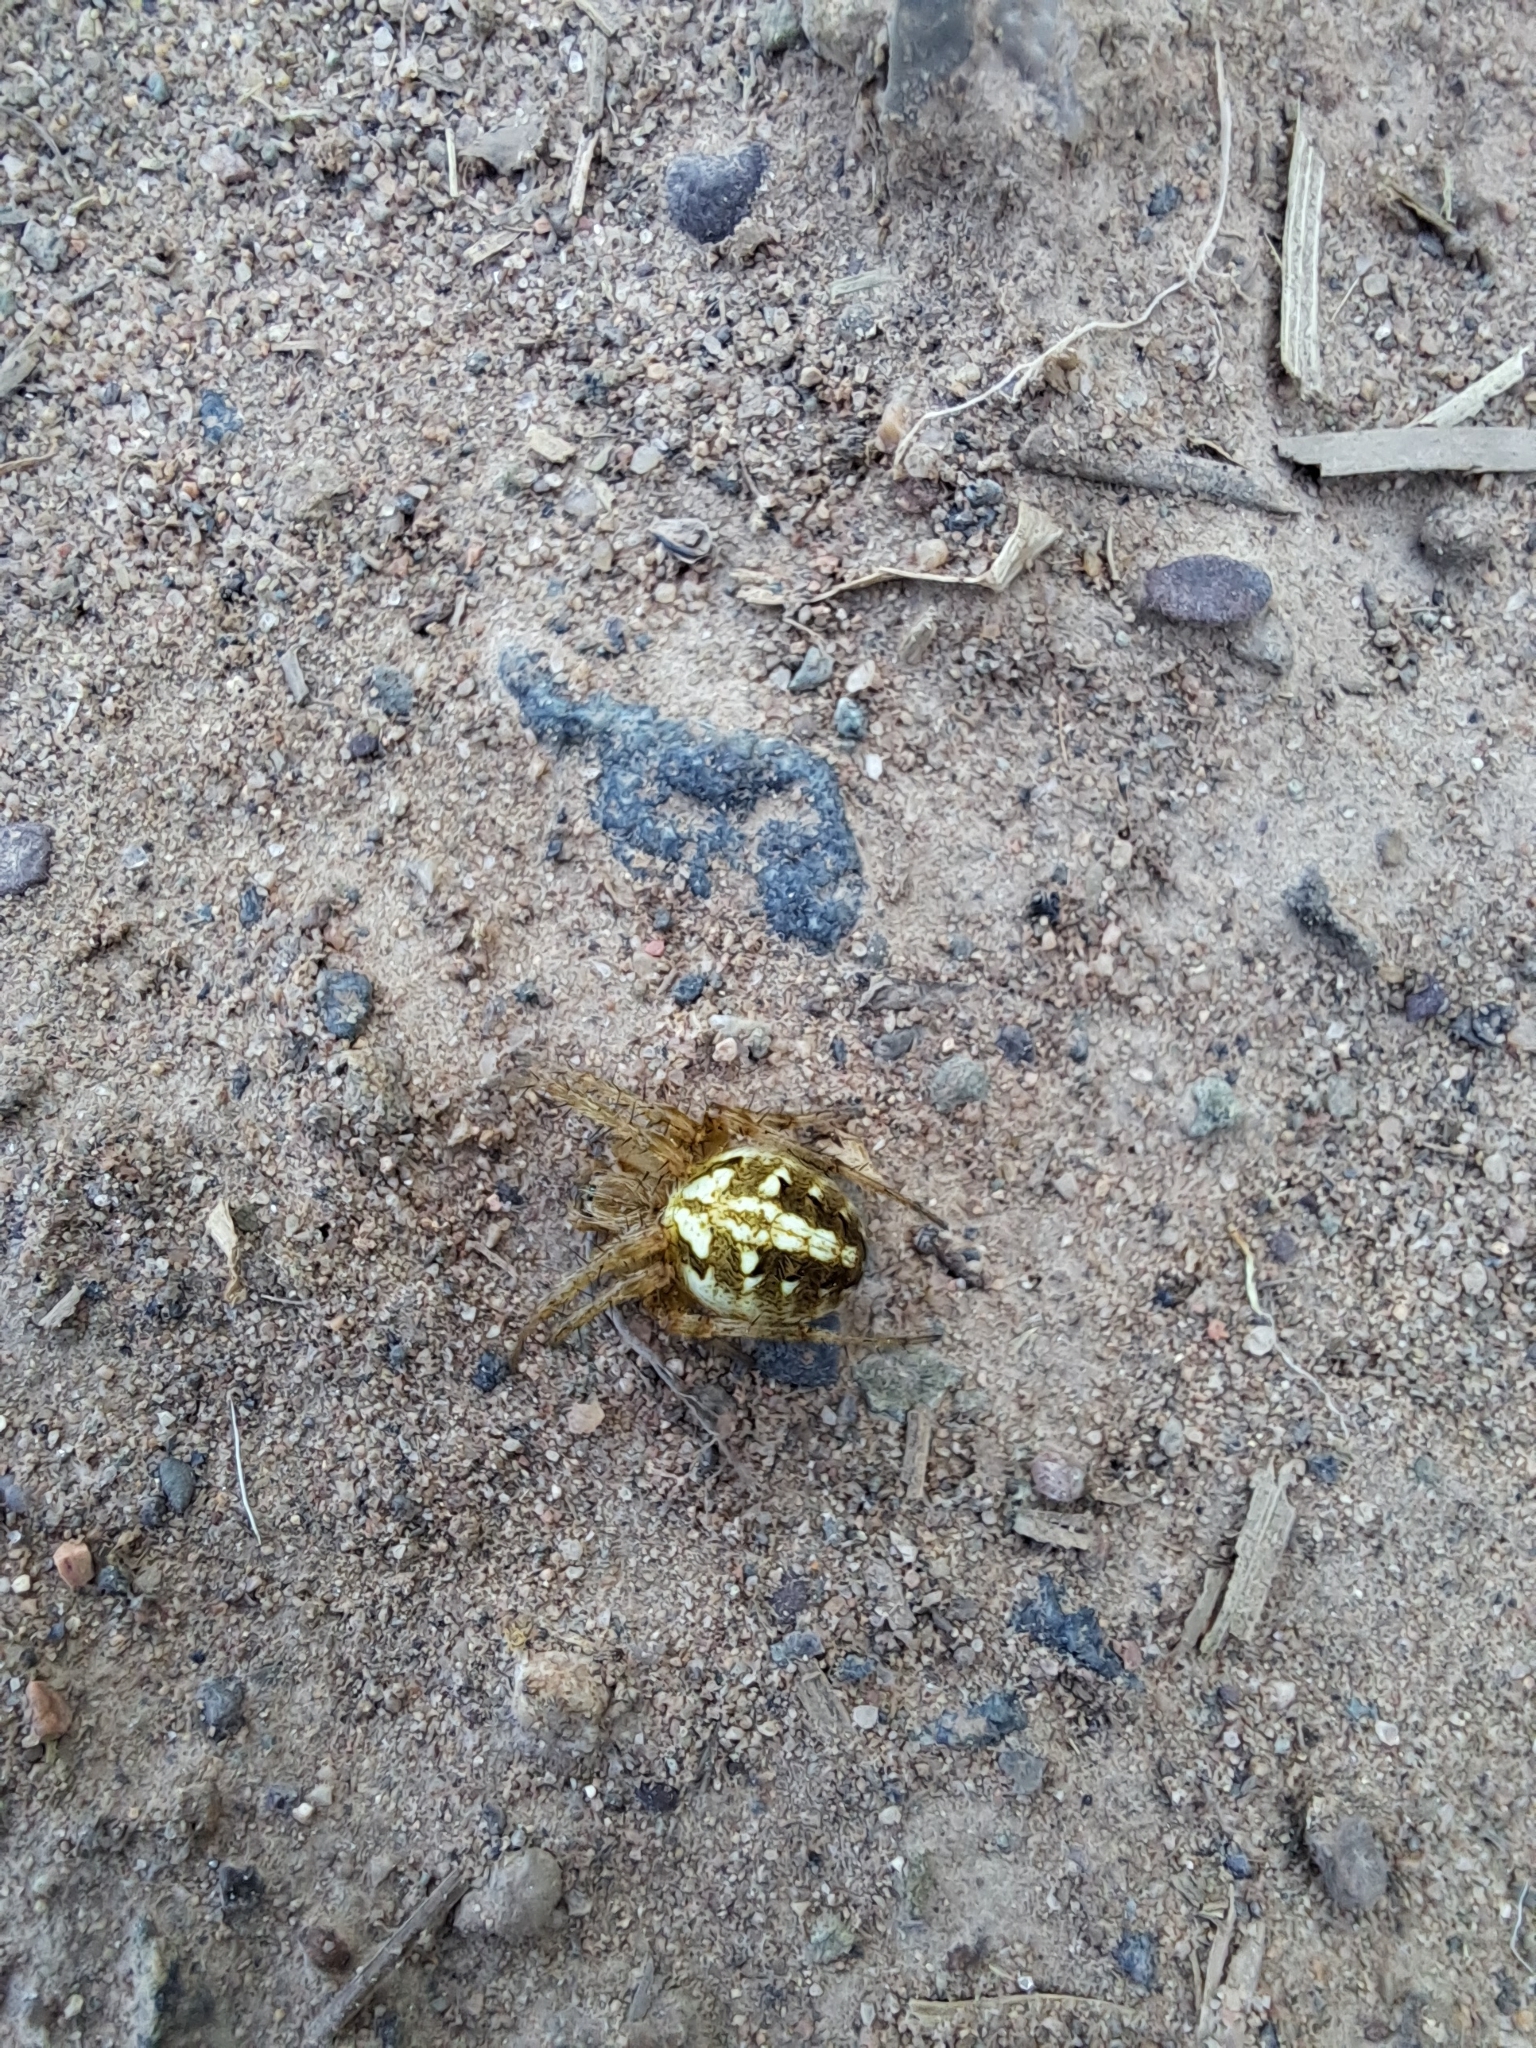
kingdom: Animalia
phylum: Arthropoda
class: Arachnida
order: Araneae
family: Araneidae
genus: Neoscona
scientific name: Neoscona arabesca
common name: Orb weavers
